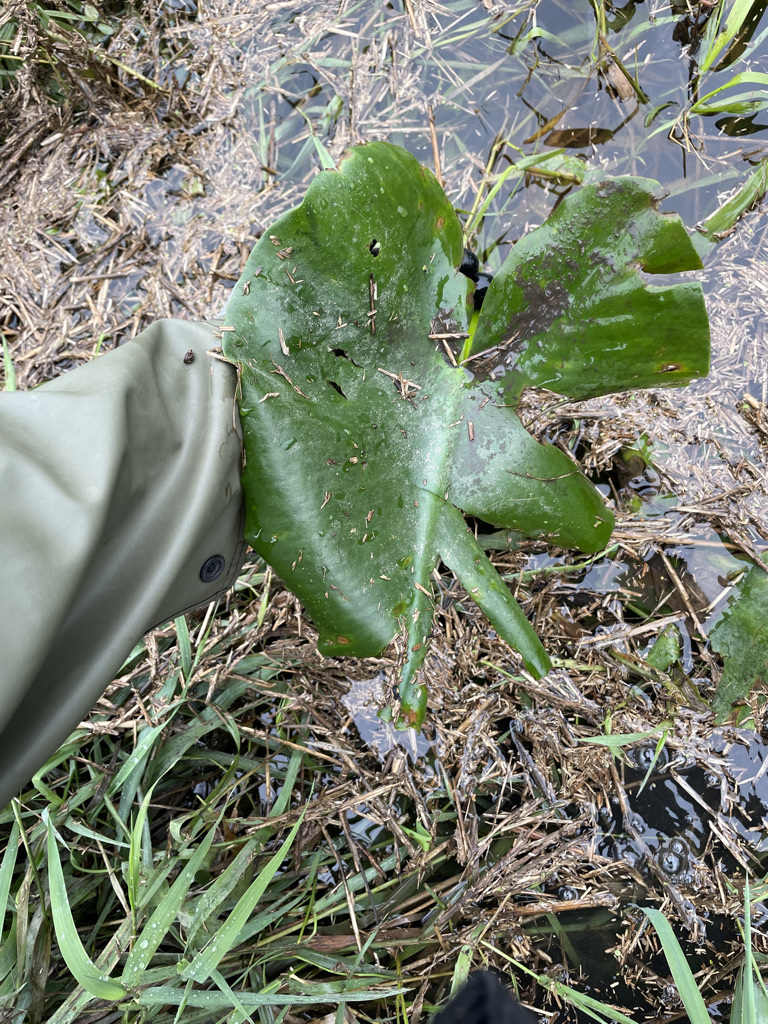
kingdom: Plantae
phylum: Tracheophyta
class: Magnoliopsida
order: Nymphaeales
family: Nymphaeaceae
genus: Nuphar
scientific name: Nuphar polysepala
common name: Rocky mountain cow-lily
